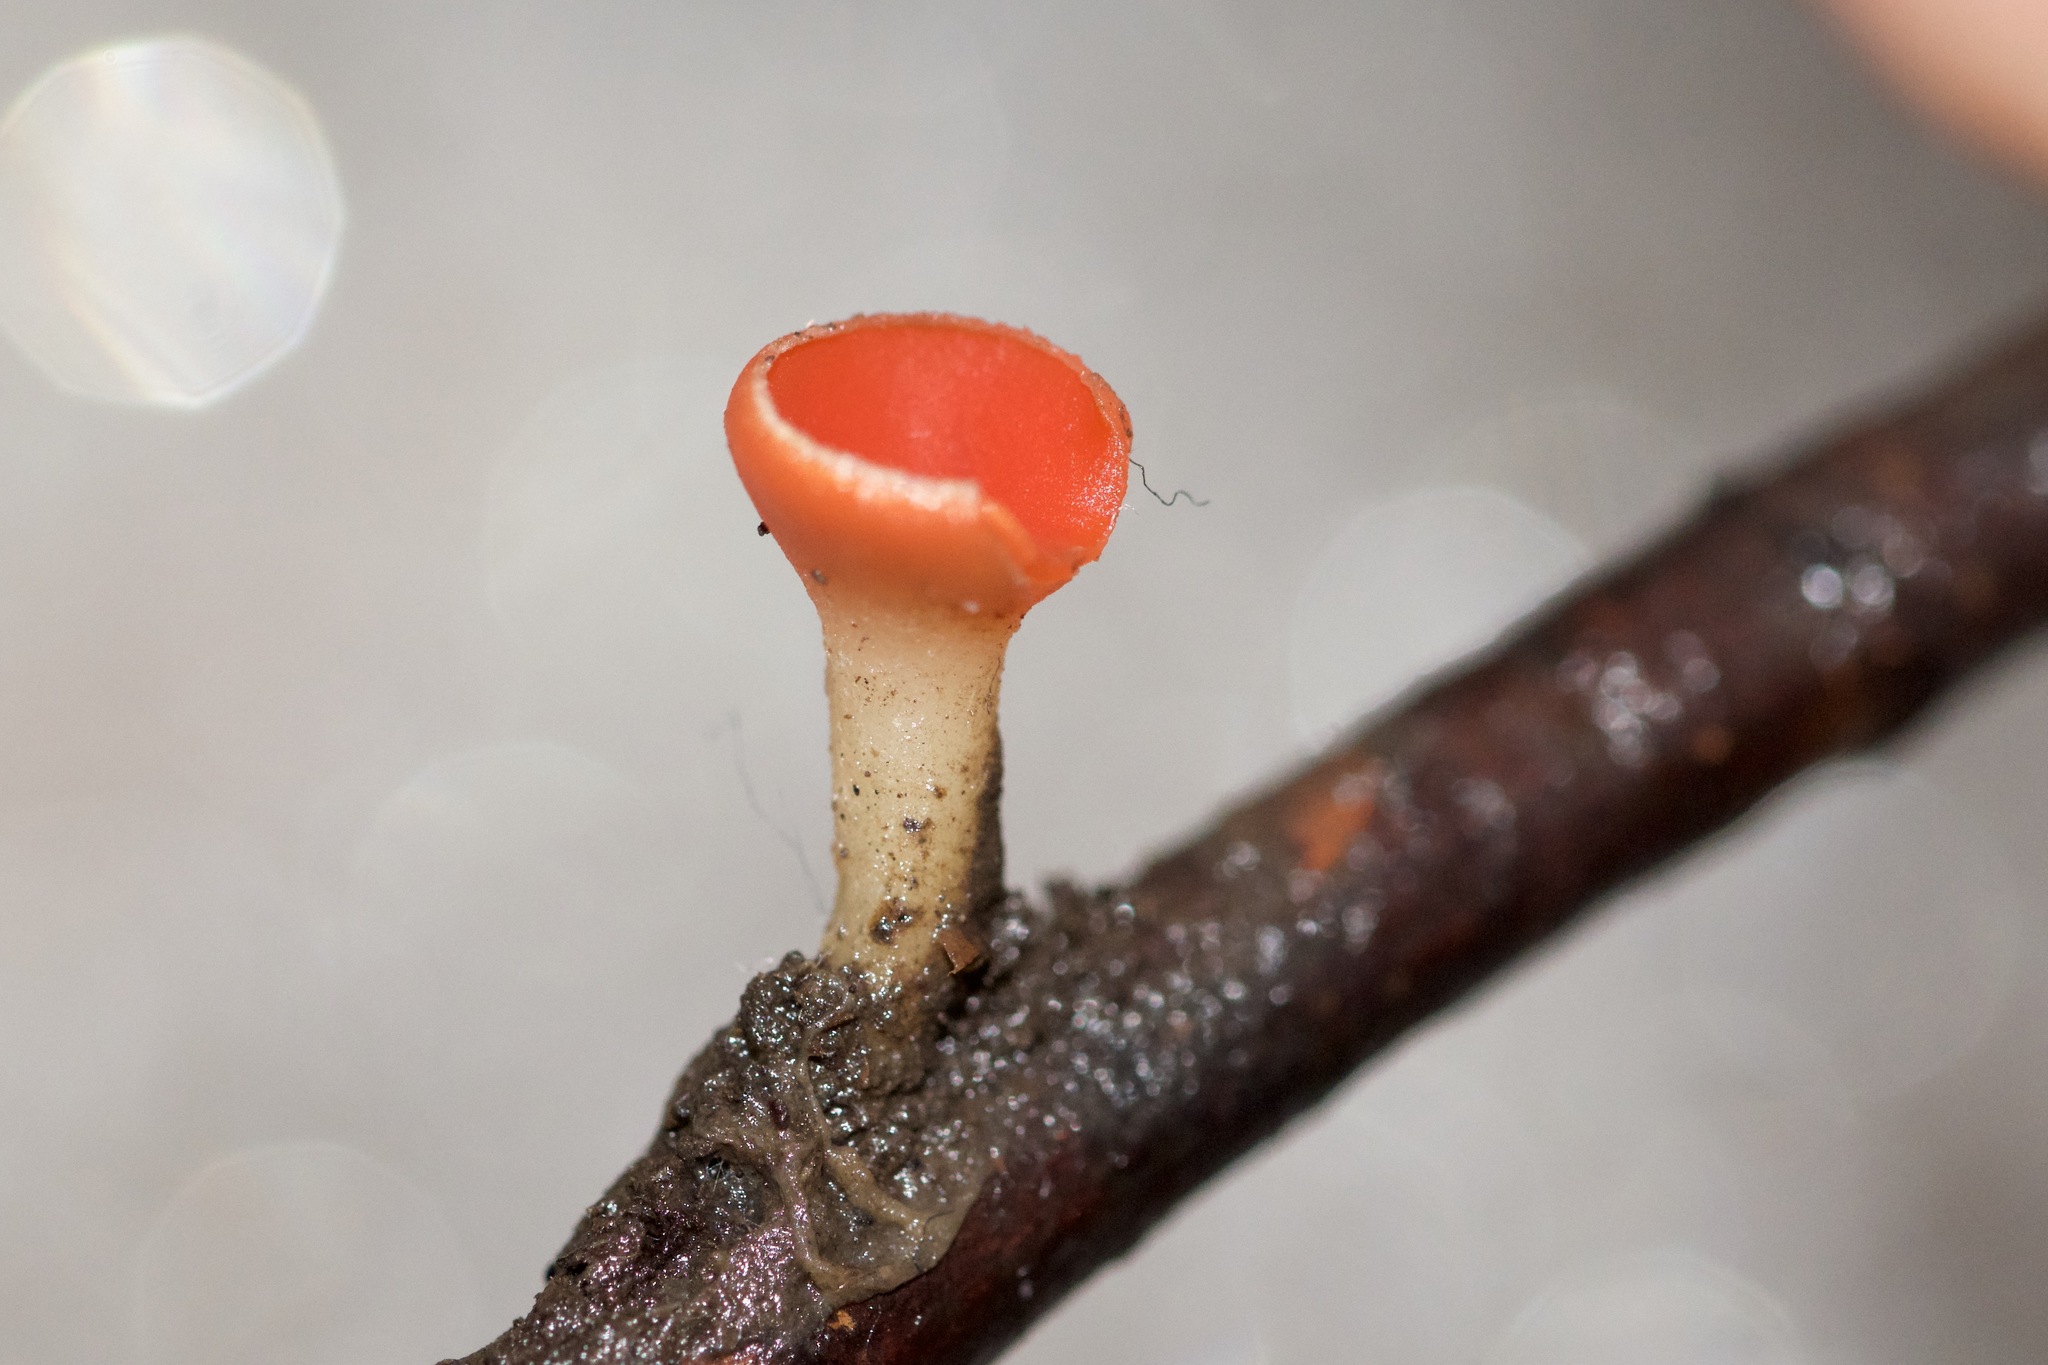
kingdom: Fungi
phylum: Ascomycota
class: Pezizomycetes
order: Pezizales
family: Sarcoscyphaceae
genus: Sarcoscypha
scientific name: Sarcoscypha occidentalis
